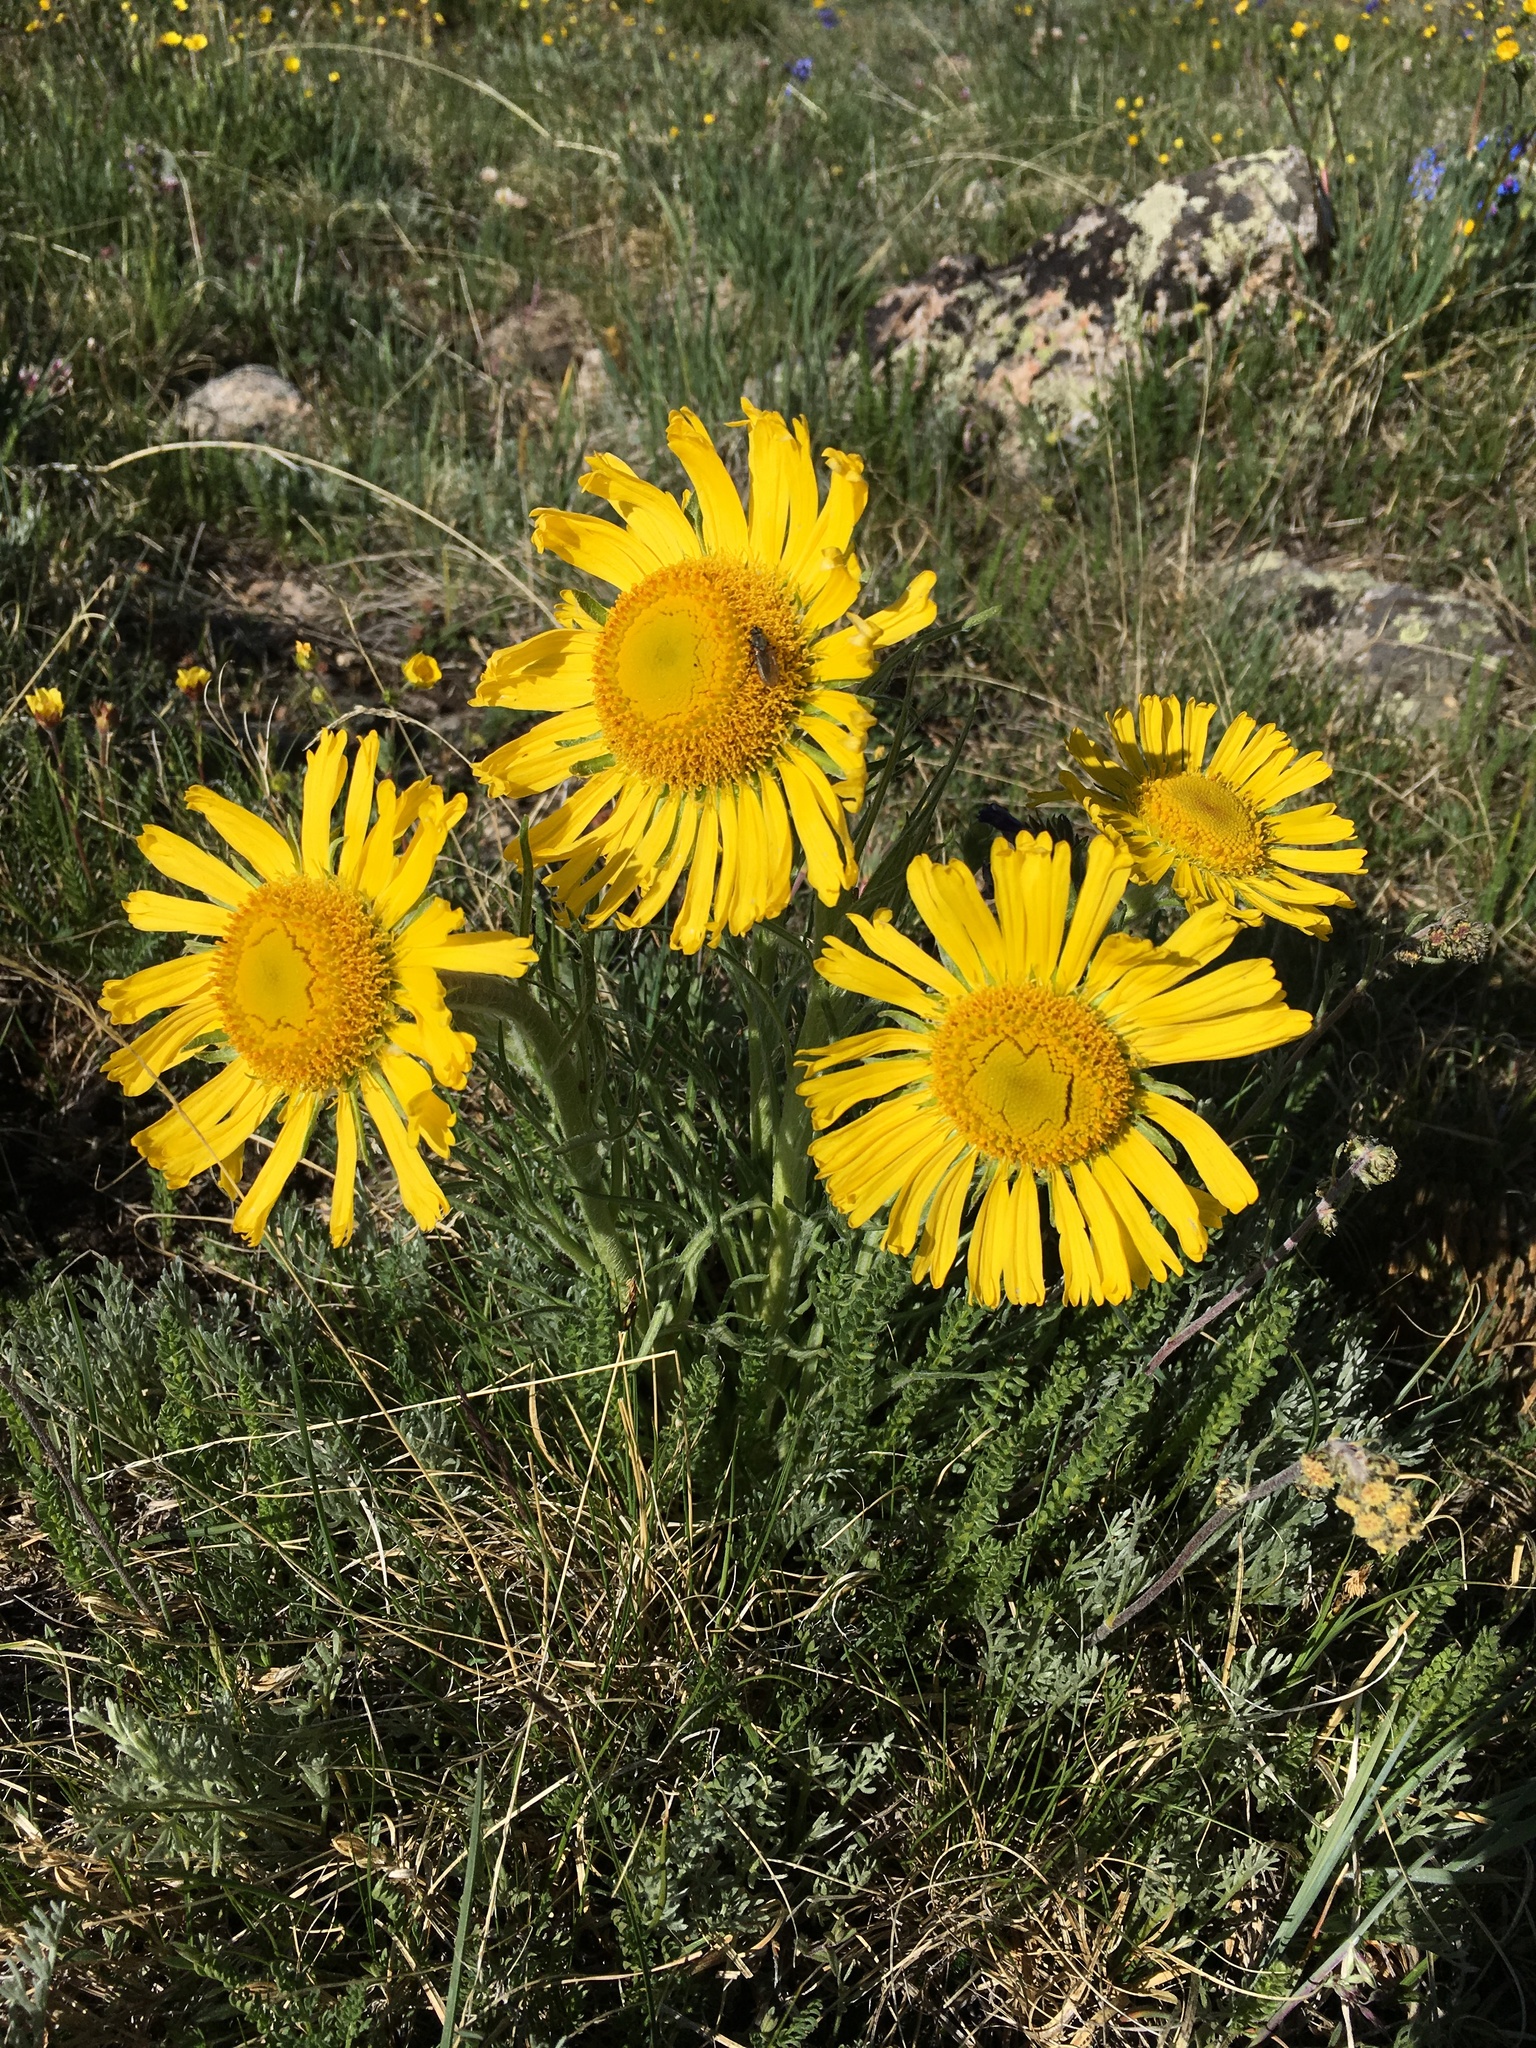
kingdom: Plantae
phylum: Tracheophyta
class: Magnoliopsida
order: Asterales
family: Asteraceae
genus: Hymenoxys
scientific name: Hymenoxys grandiflora
